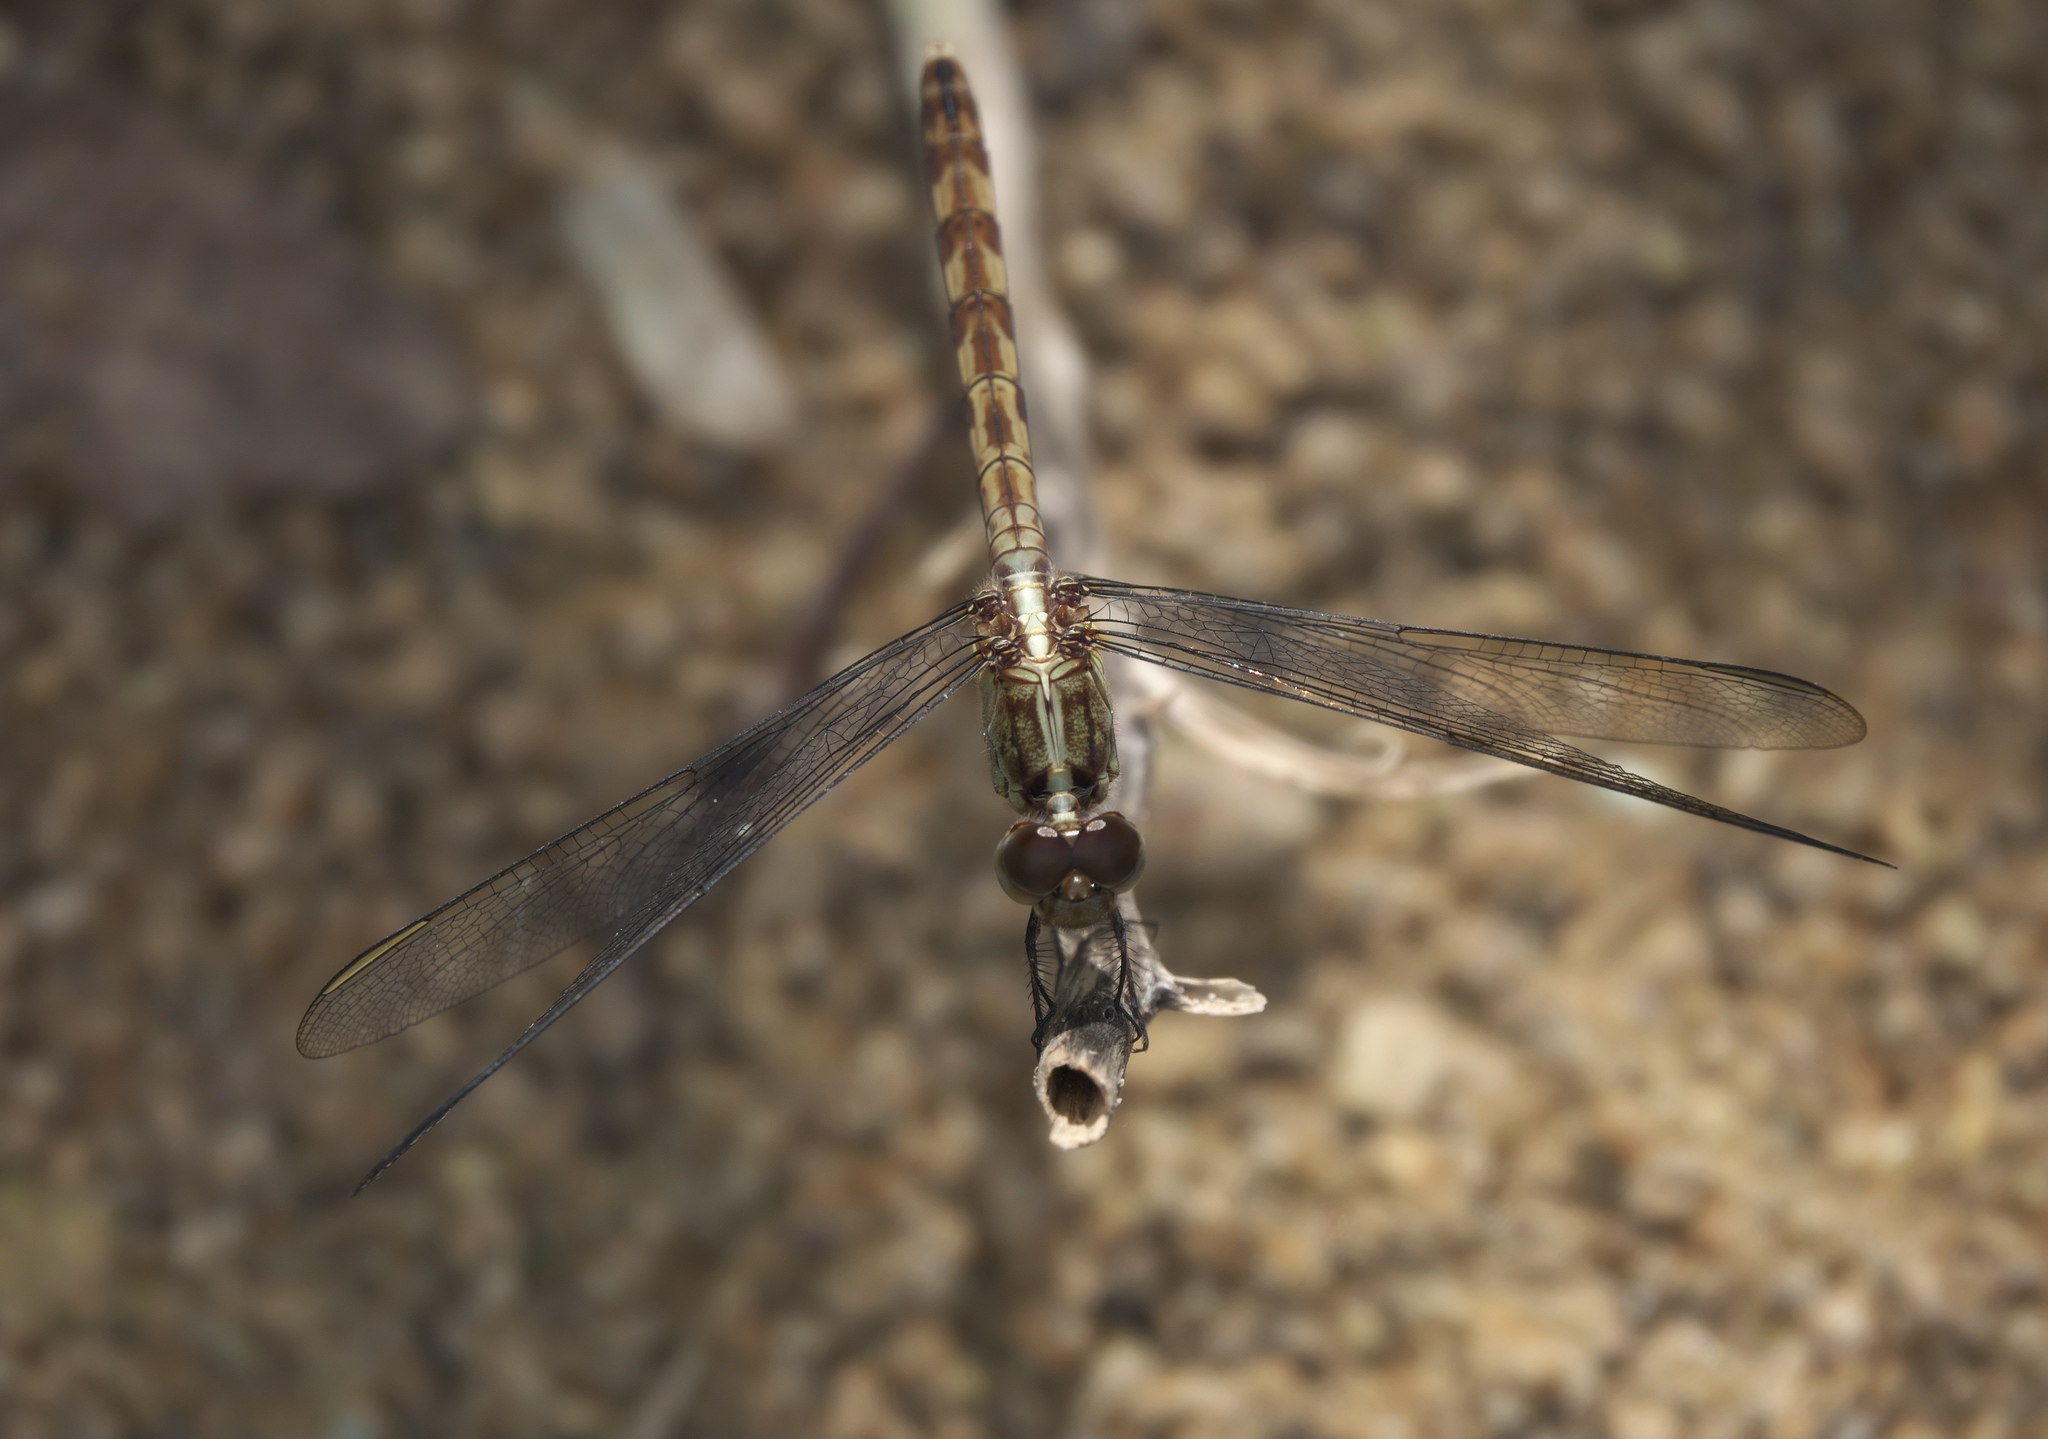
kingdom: Animalia
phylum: Arthropoda
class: Insecta
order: Odonata
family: Libellulidae
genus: Erythrodiplax
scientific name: Erythrodiplax umbrata
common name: Band-winged dragonlet
